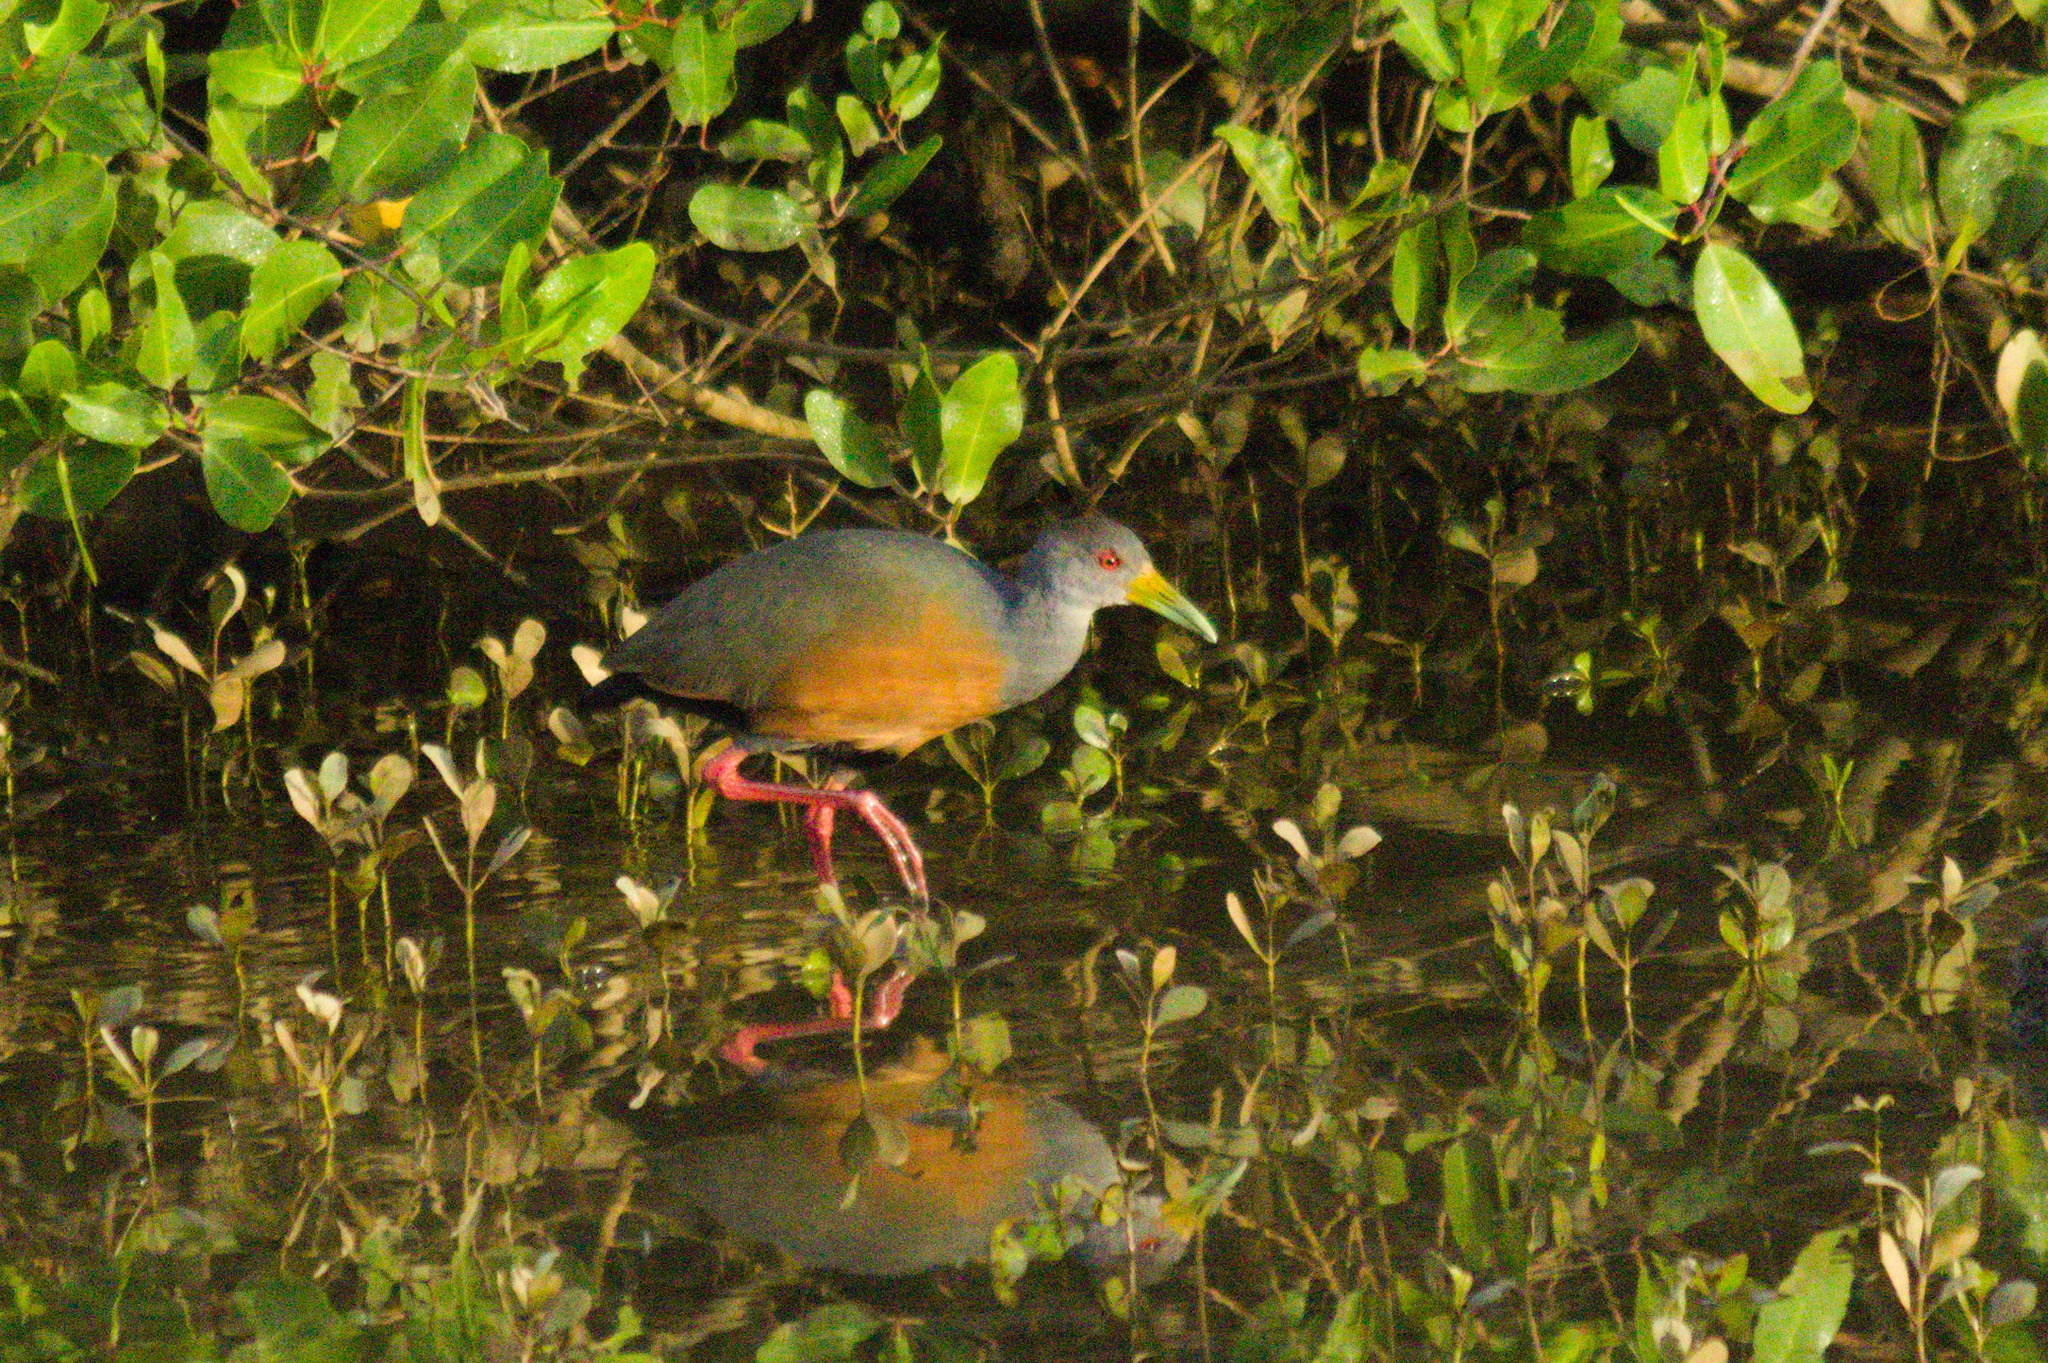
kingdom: Animalia
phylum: Chordata
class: Aves
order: Gruiformes
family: Rallidae
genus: Aramides
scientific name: Aramides cajanea
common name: Gray-necked wood-rail
